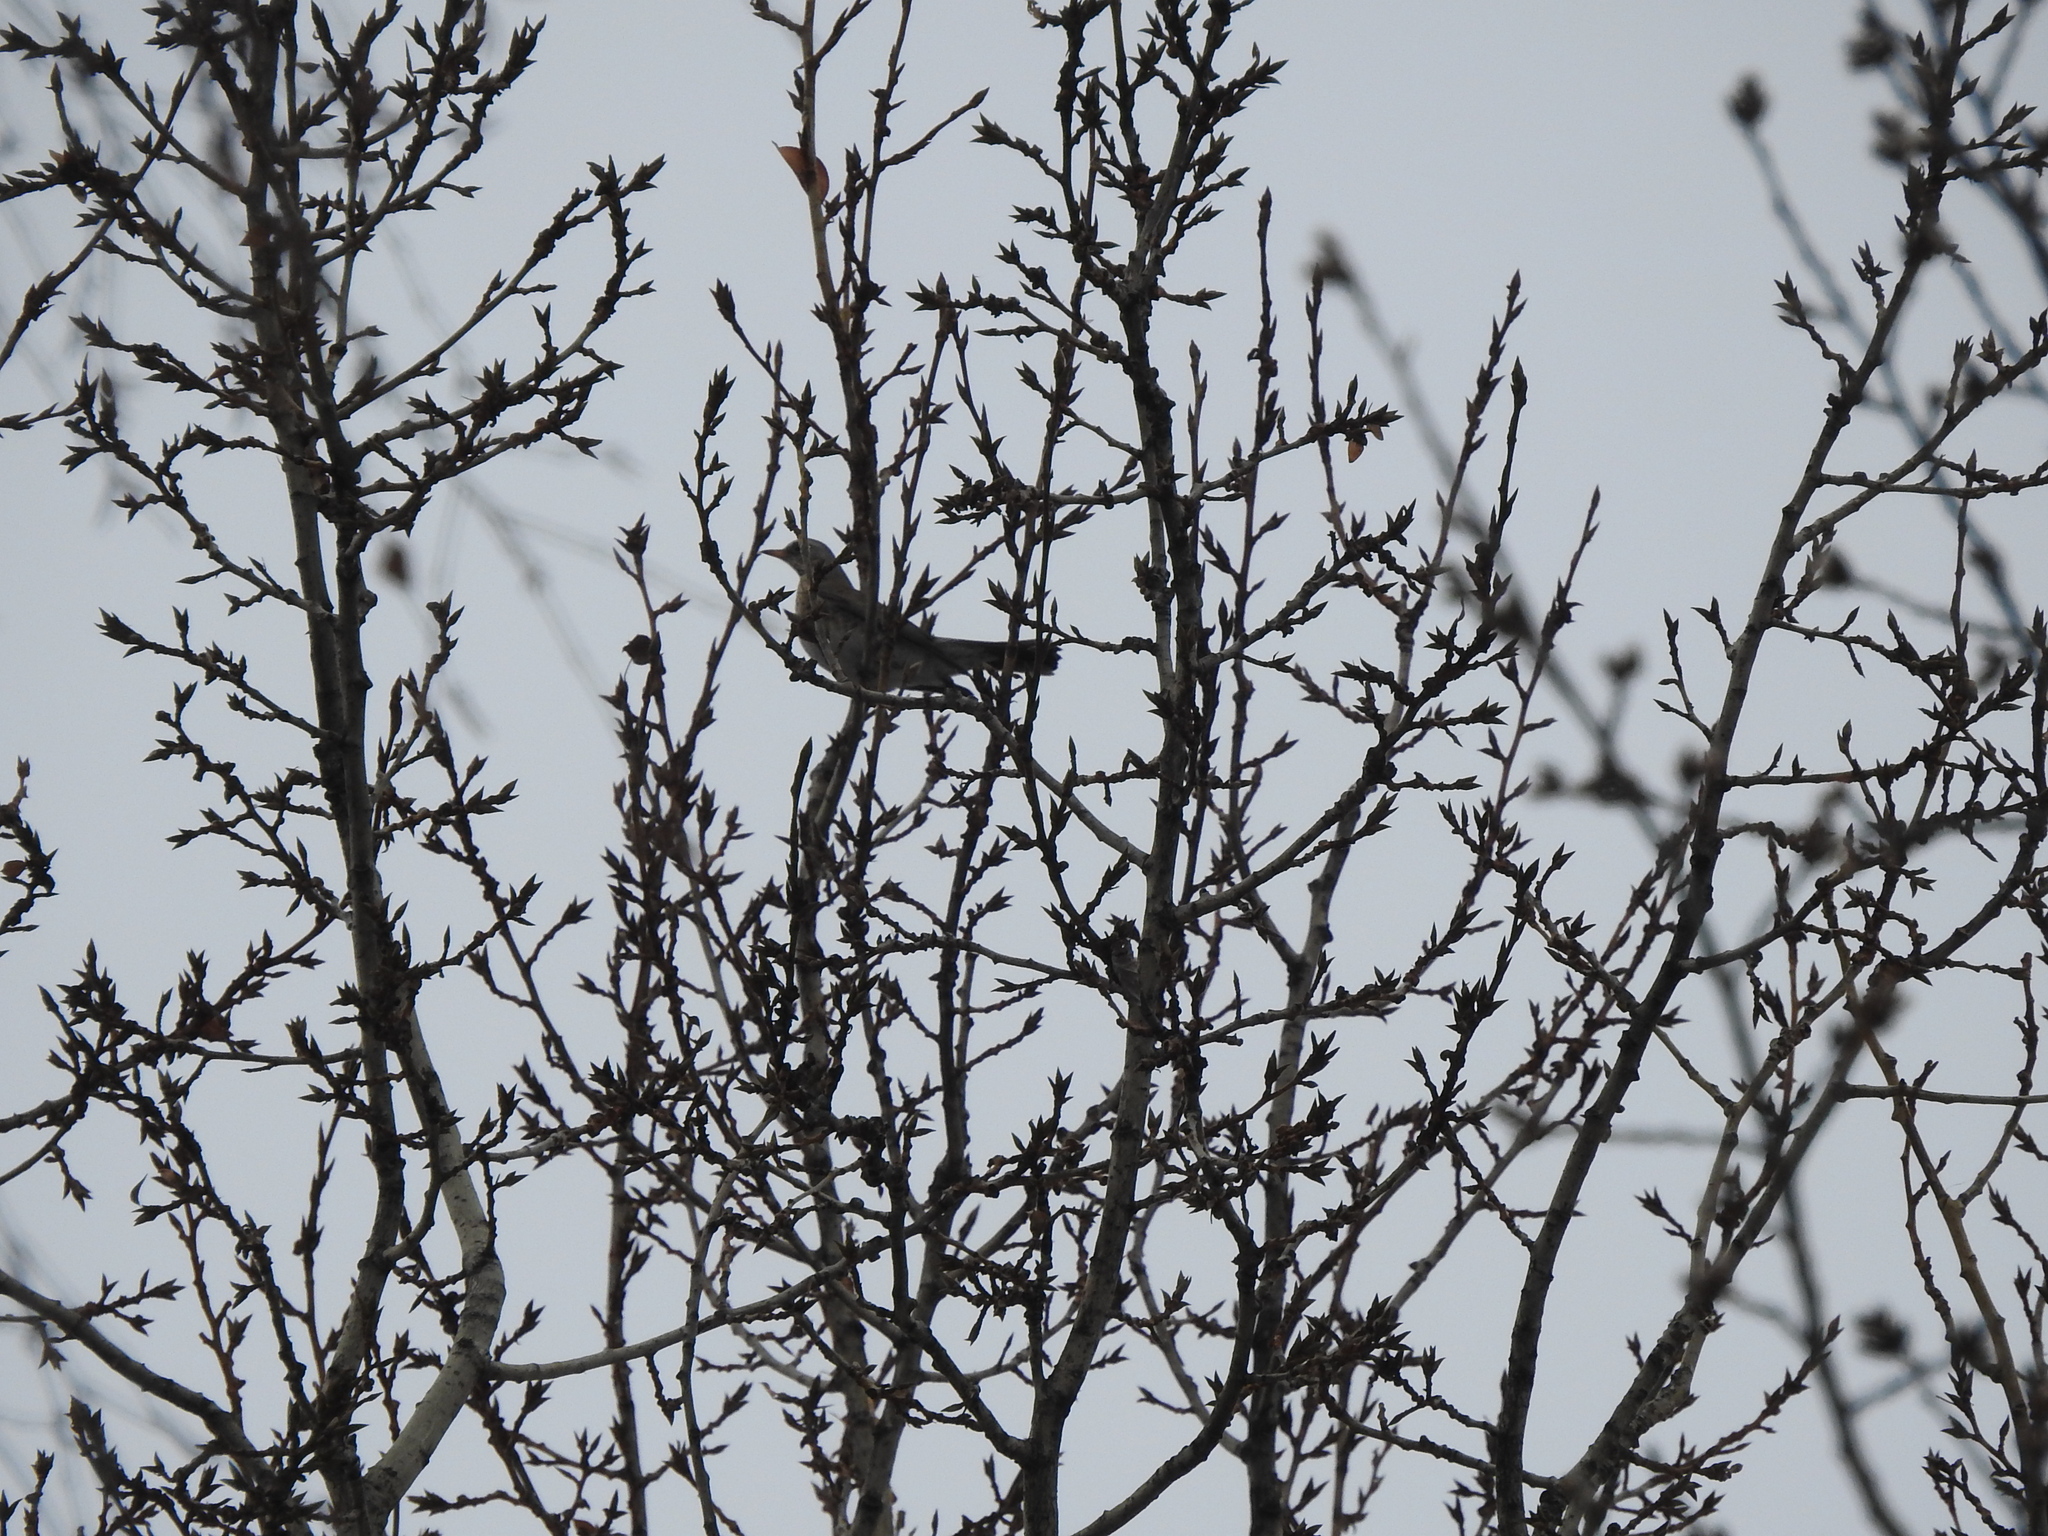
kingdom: Animalia
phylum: Chordata
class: Aves
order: Passeriformes
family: Turdidae
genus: Turdus
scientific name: Turdus pilaris
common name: Fieldfare
